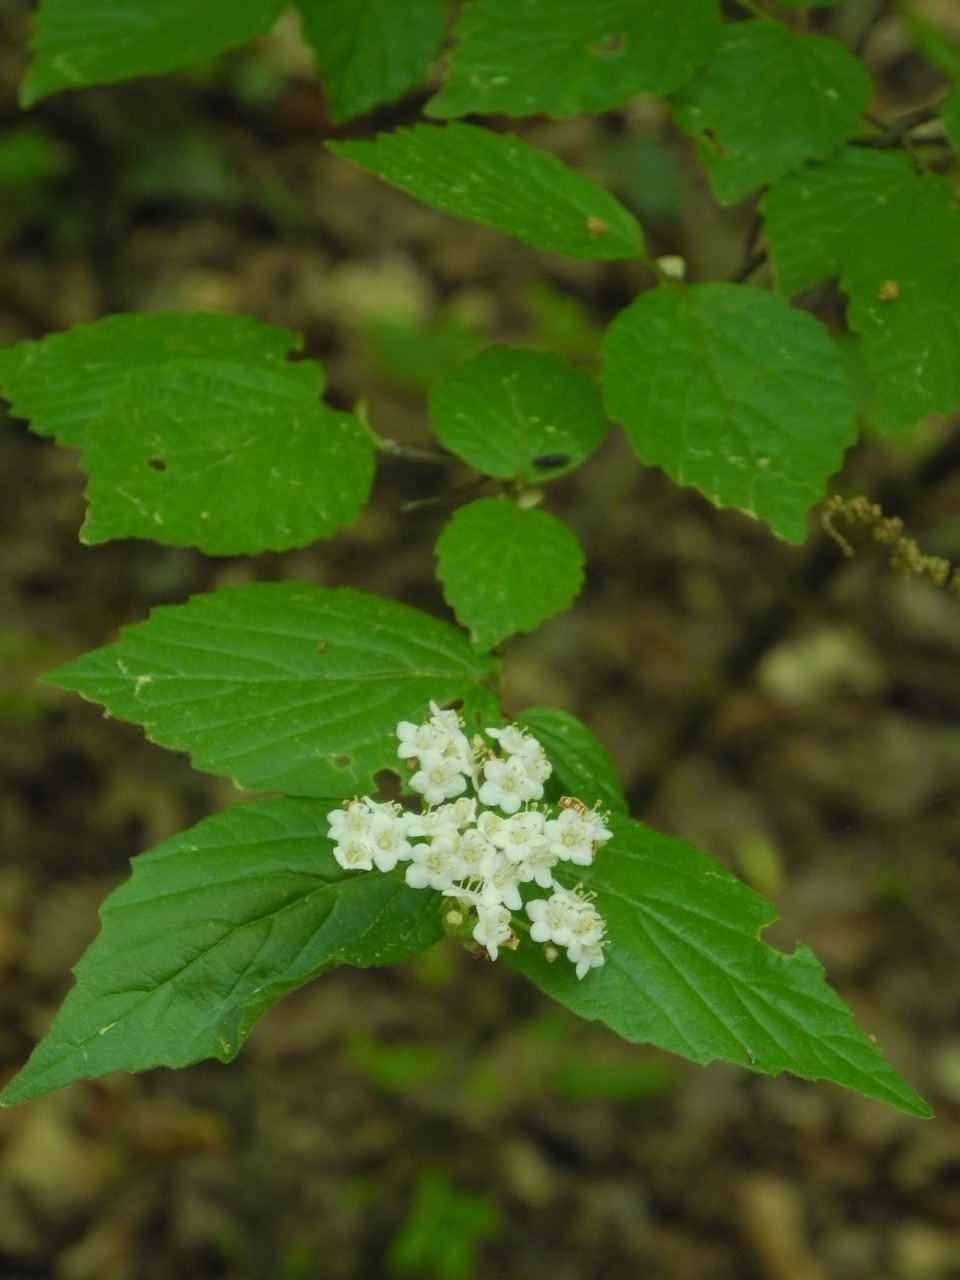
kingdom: Plantae
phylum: Tracheophyta
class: Magnoliopsida
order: Dipsacales
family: Viburnaceae
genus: Viburnum
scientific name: Viburnum rafinesqueanum
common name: Downy arrow-wood
